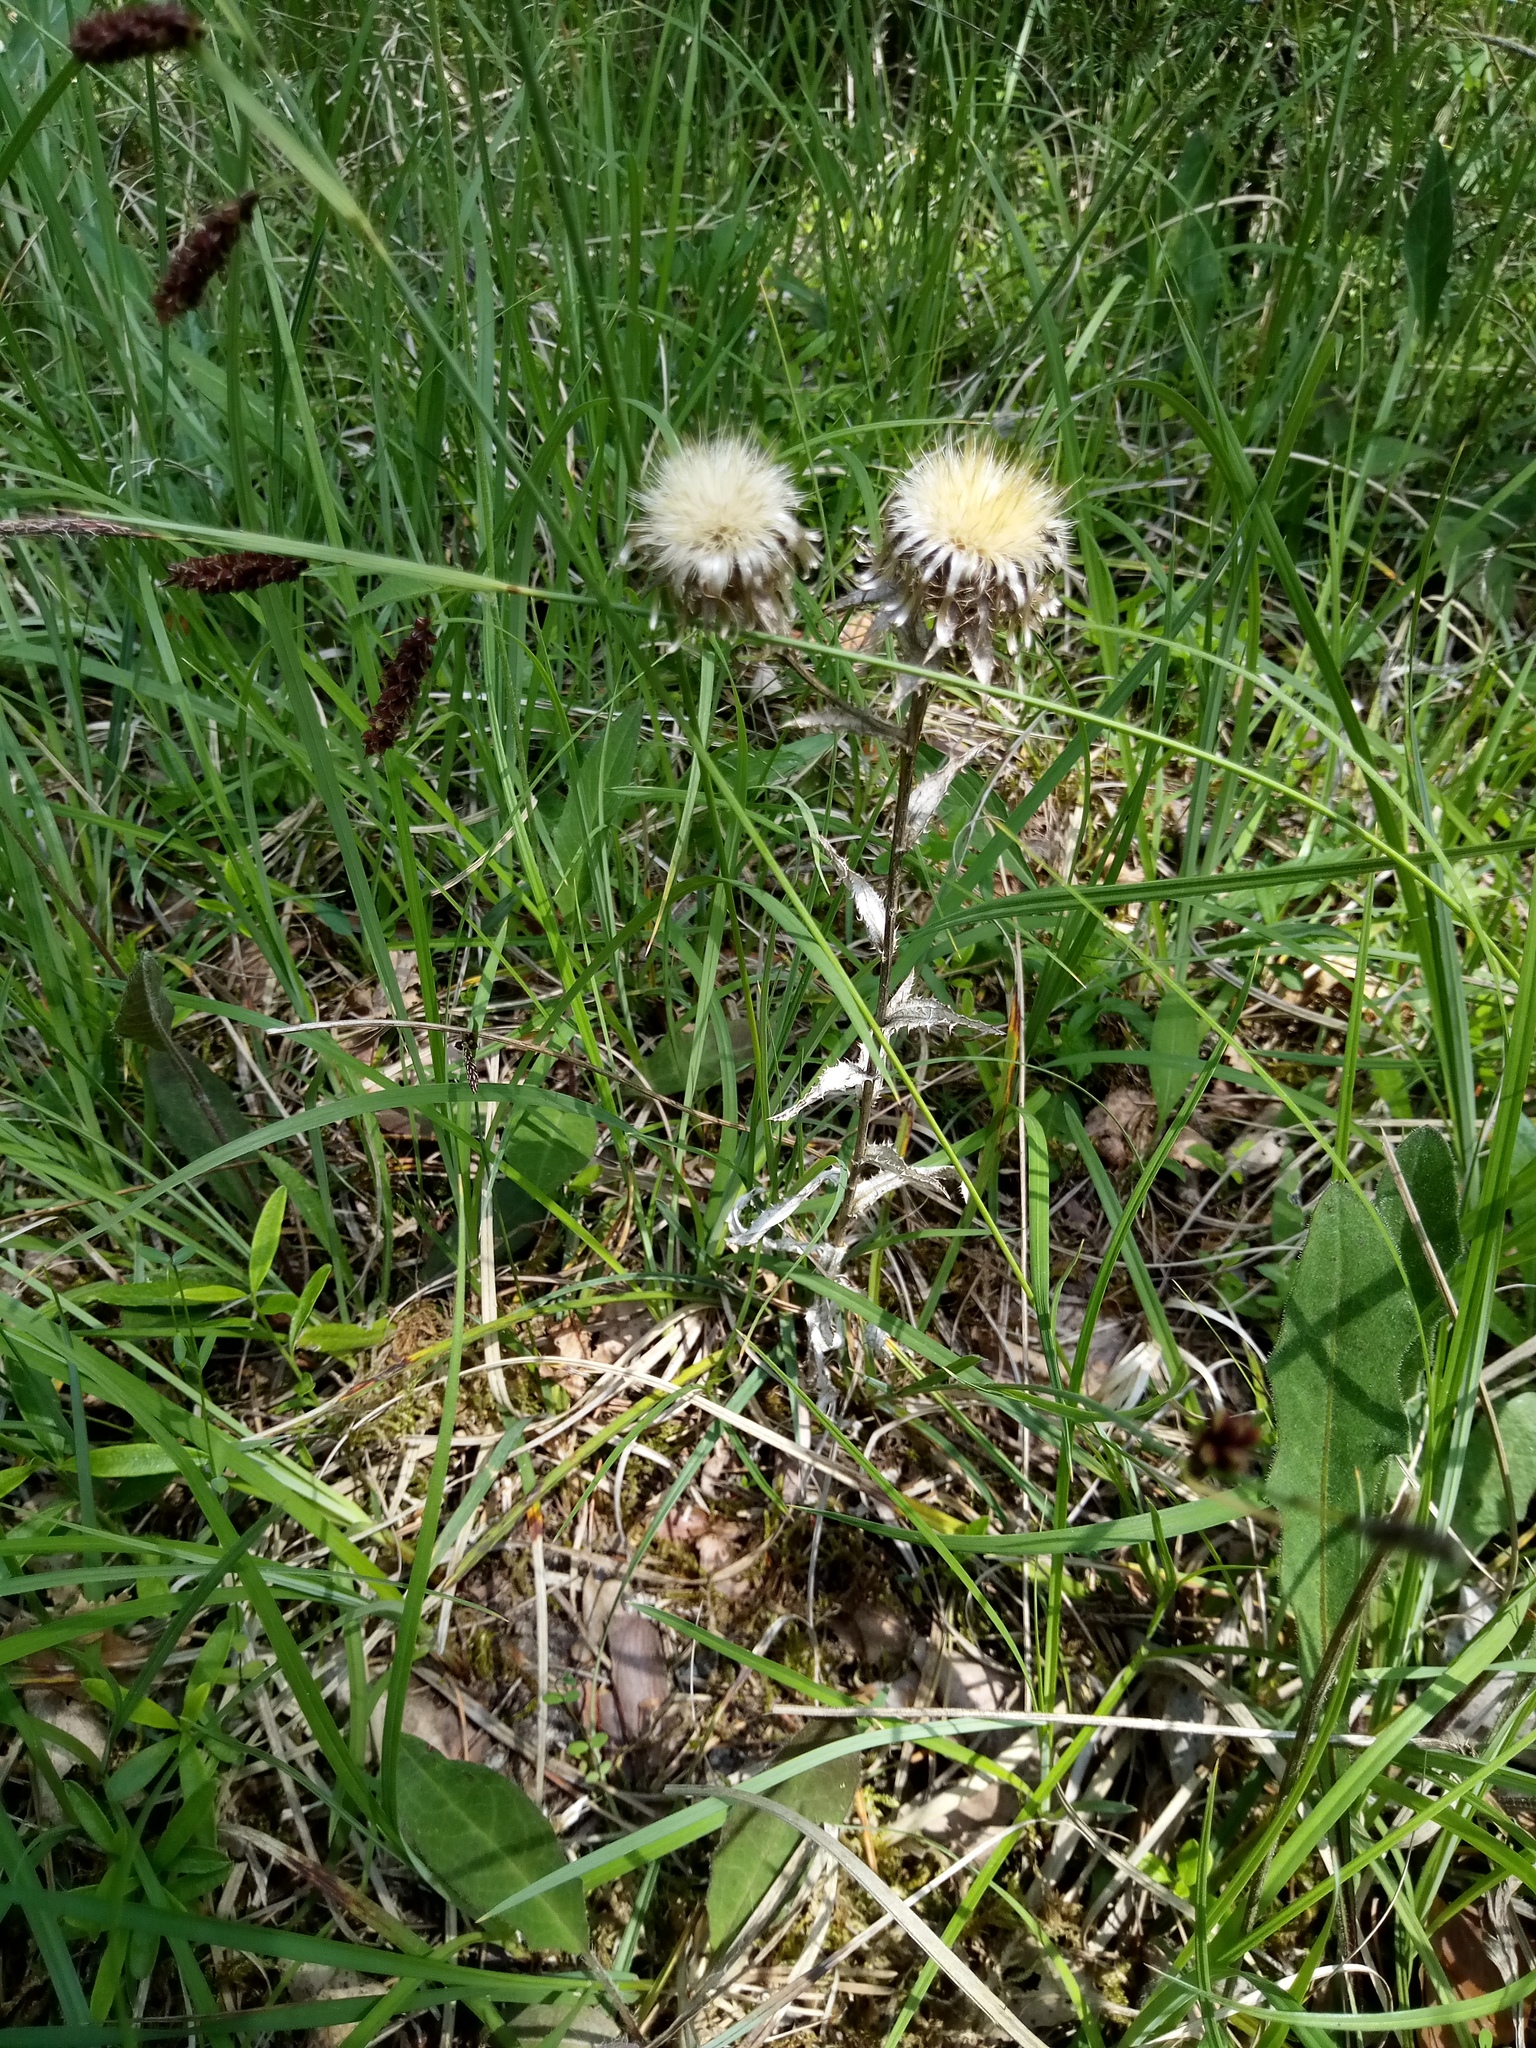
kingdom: Plantae
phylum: Tracheophyta
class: Magnoliopsida
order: Asterales
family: Asteraceae
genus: Carlina
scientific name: Carlina vulgaris
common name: Carline thistle
